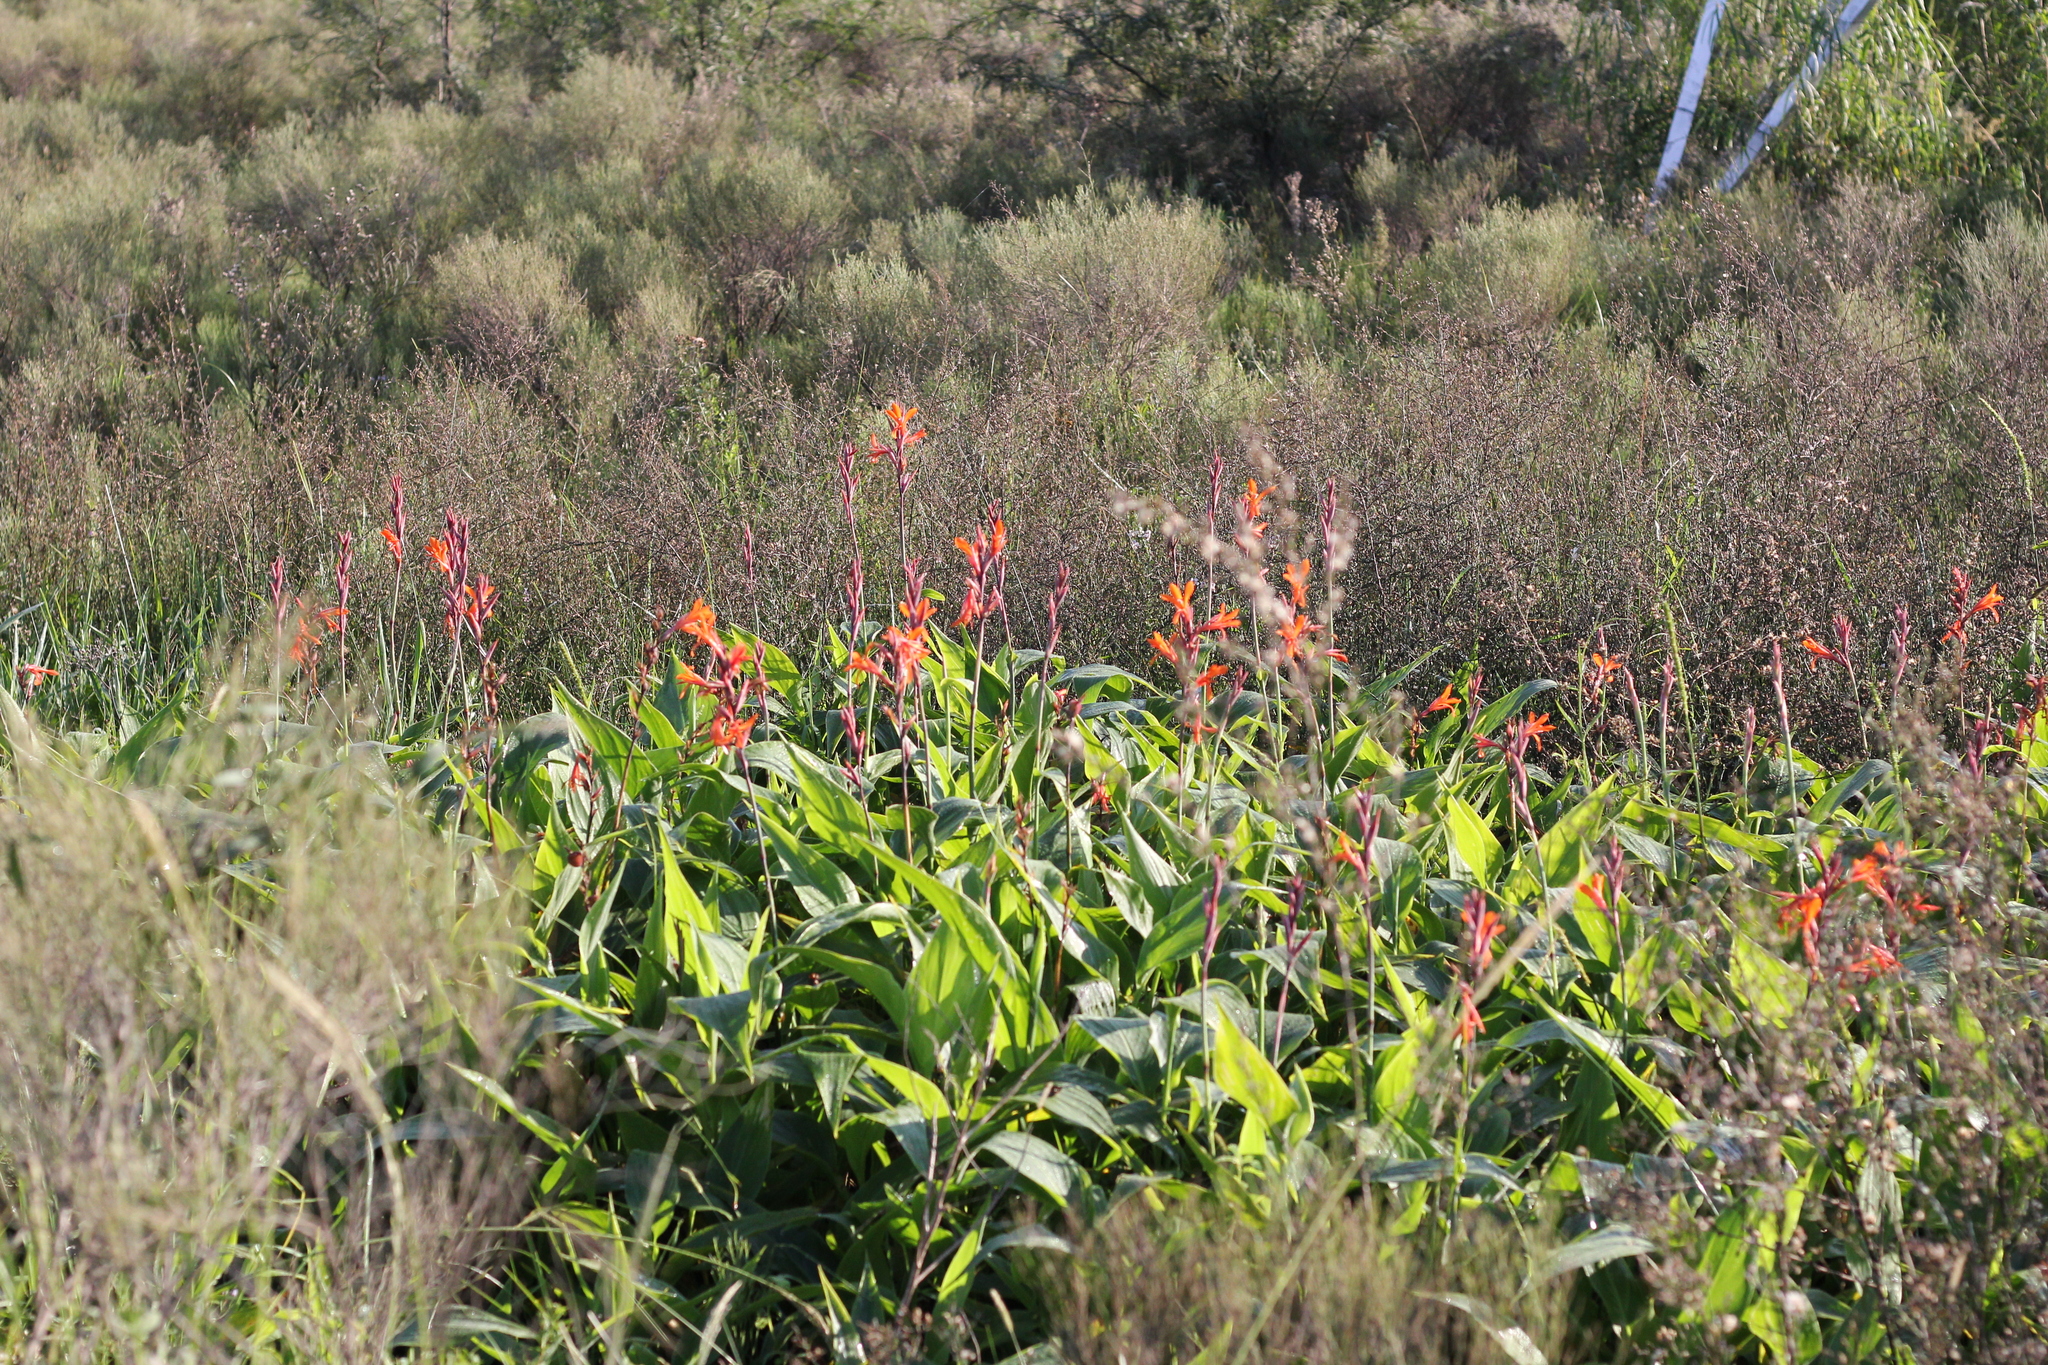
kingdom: Plantae
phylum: Tracheophyta
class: Liliopsida
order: Zingiberales
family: Cannaceae
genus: Canna
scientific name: Canna indica
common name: Indian shot
